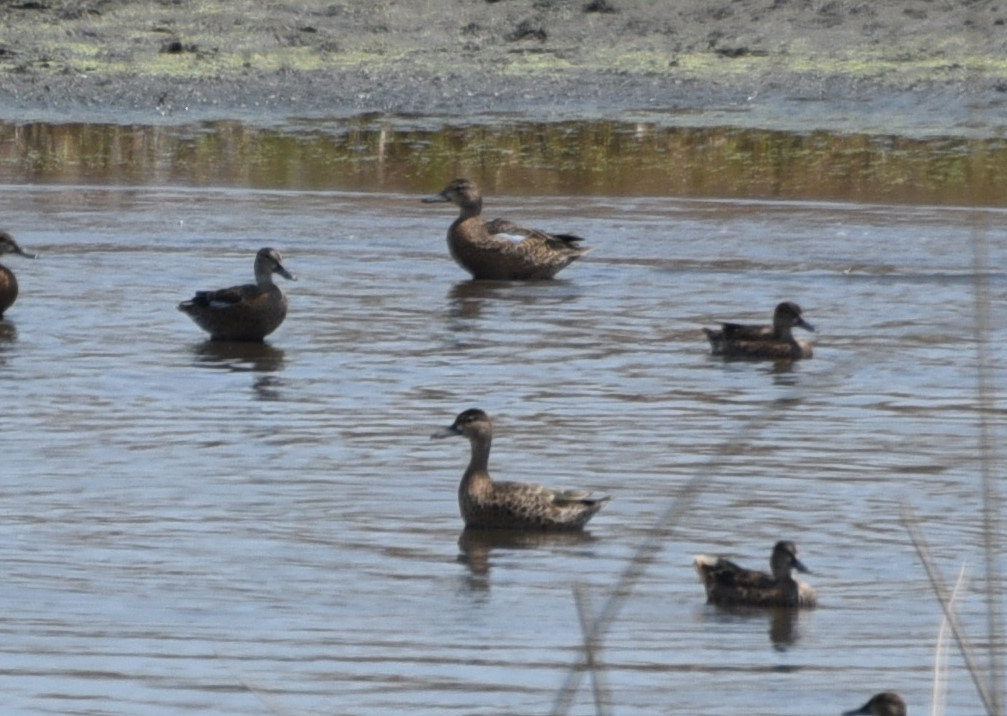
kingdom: Animalia
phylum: Chordata
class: Aves
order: Anseriformes
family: Anatidae
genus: Spatula
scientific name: Spatula discors
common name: Blue-winged teal
